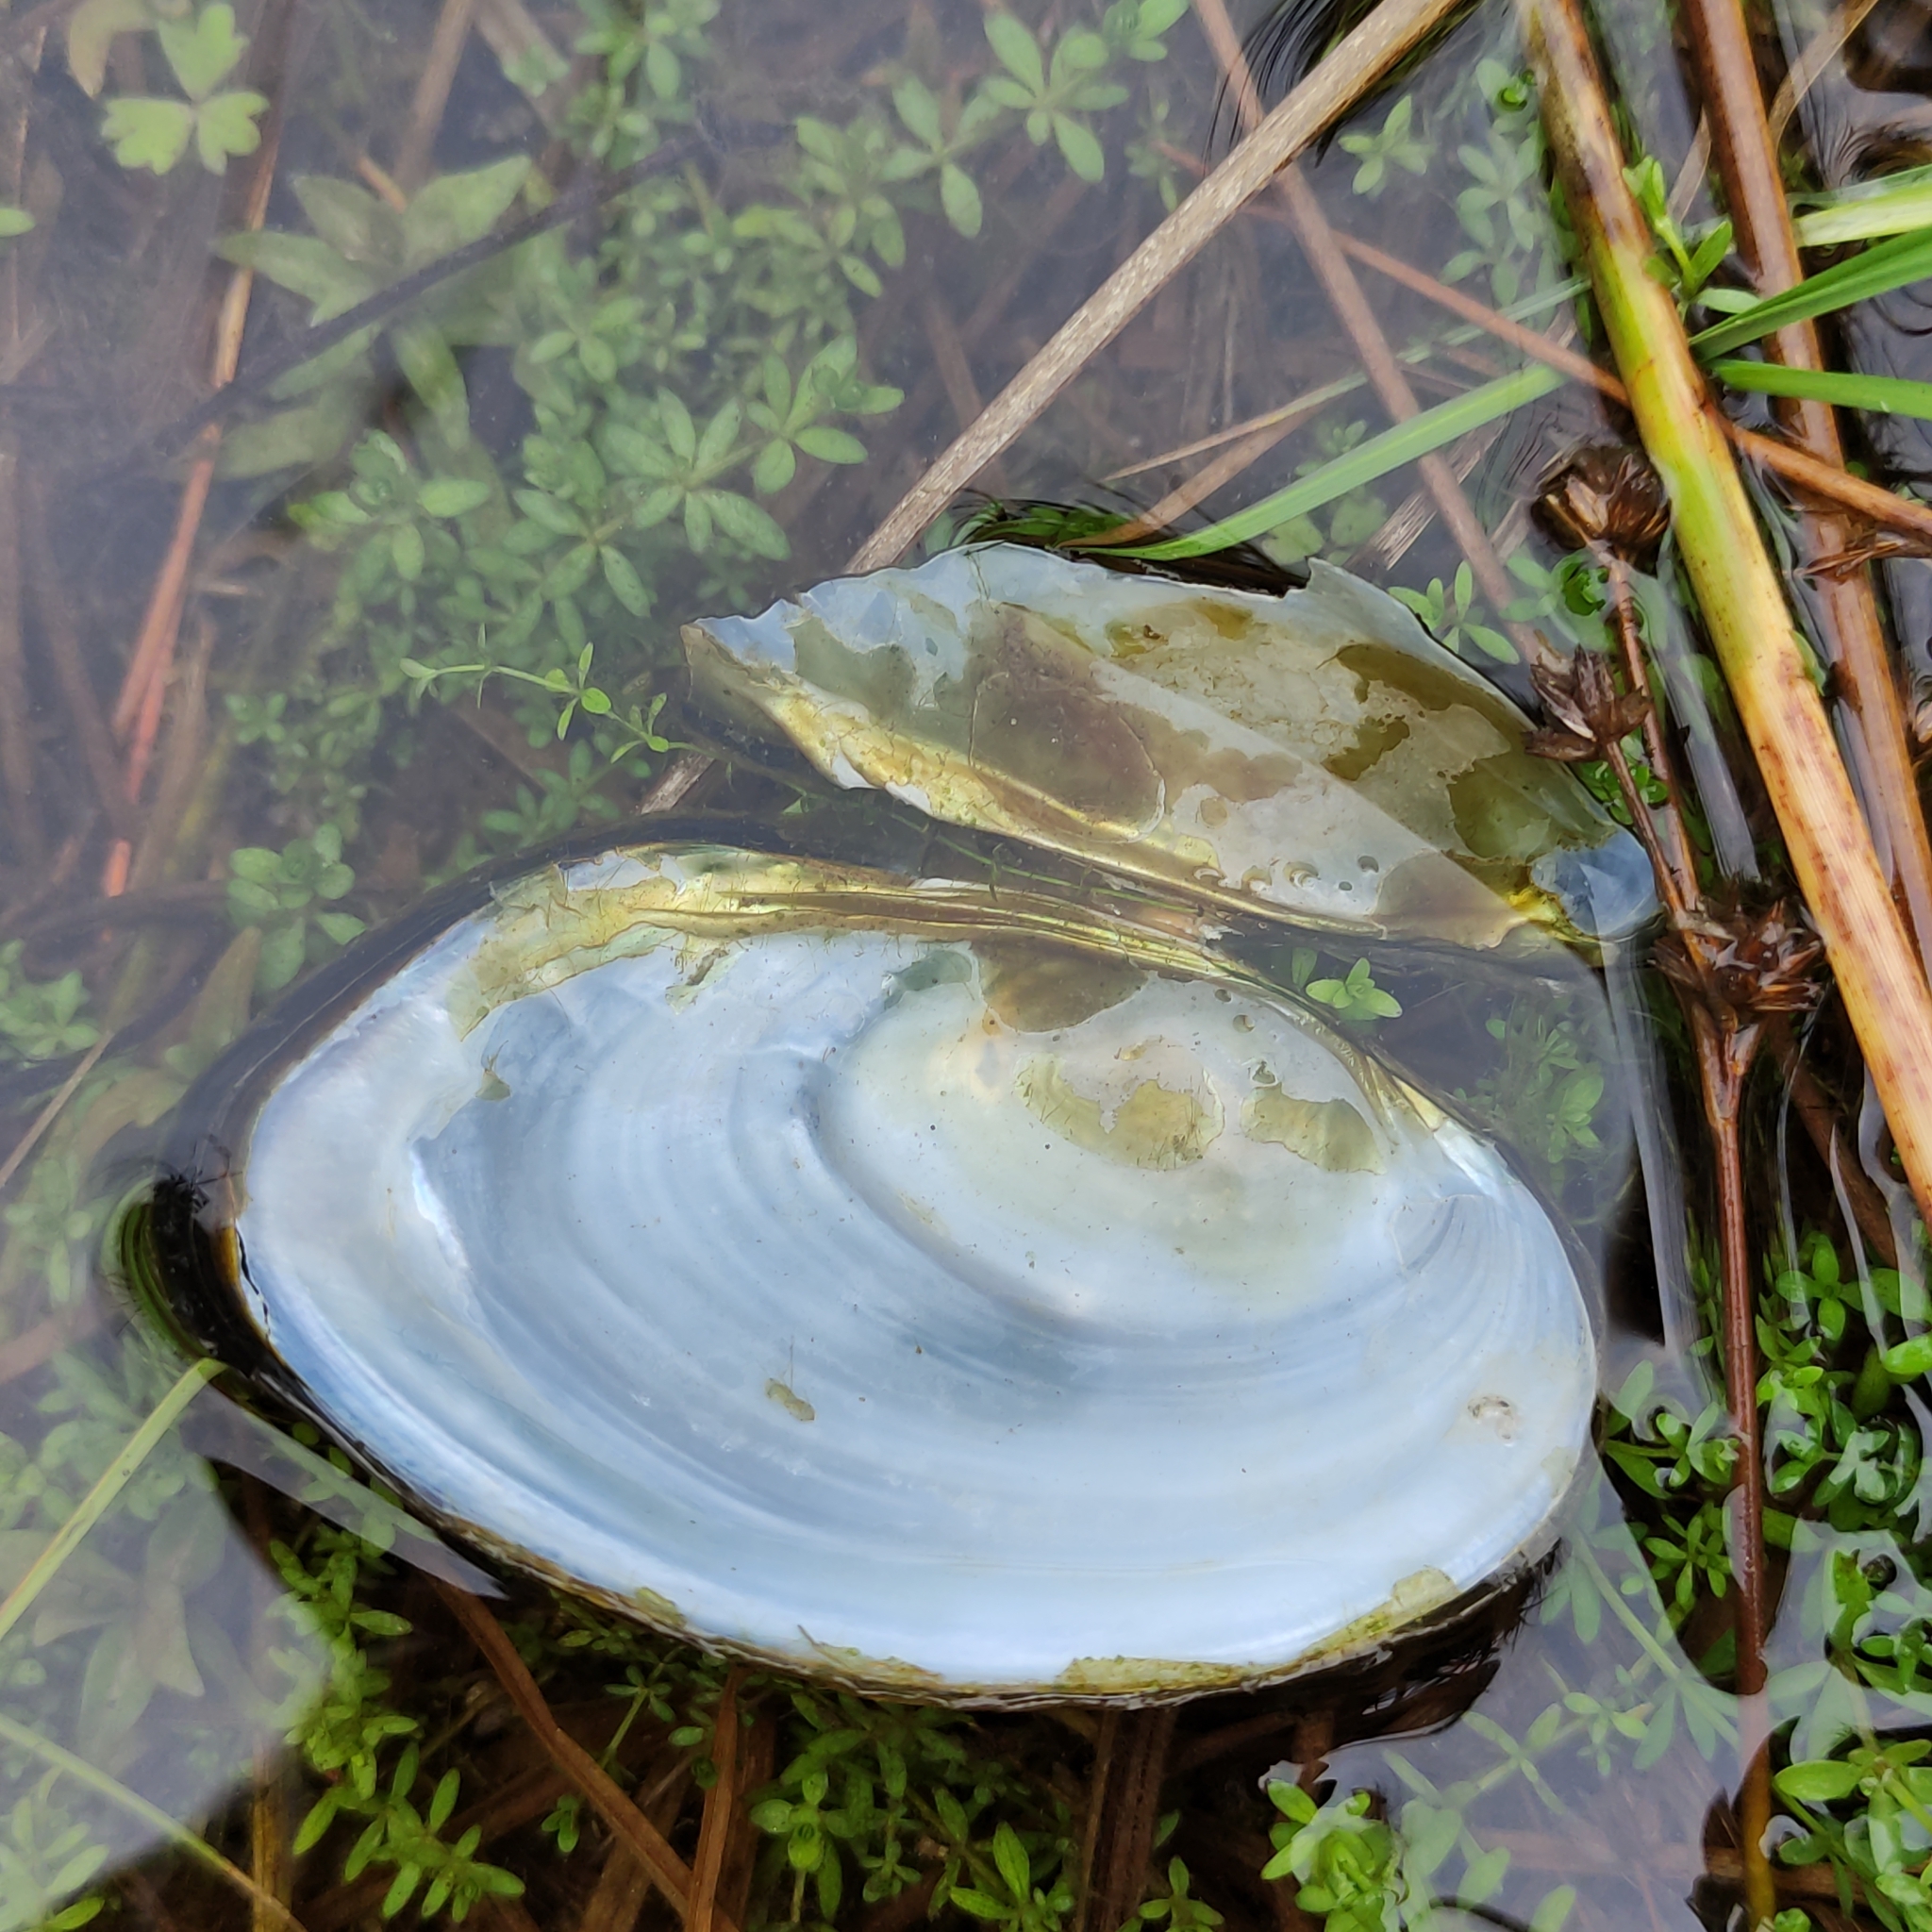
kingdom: Animalia
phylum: Mollusca
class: Bivalvia
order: Unionida
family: Hyriidae
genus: Echyridella
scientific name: Echyridella menziesii
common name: New zealand freshwater mussel
